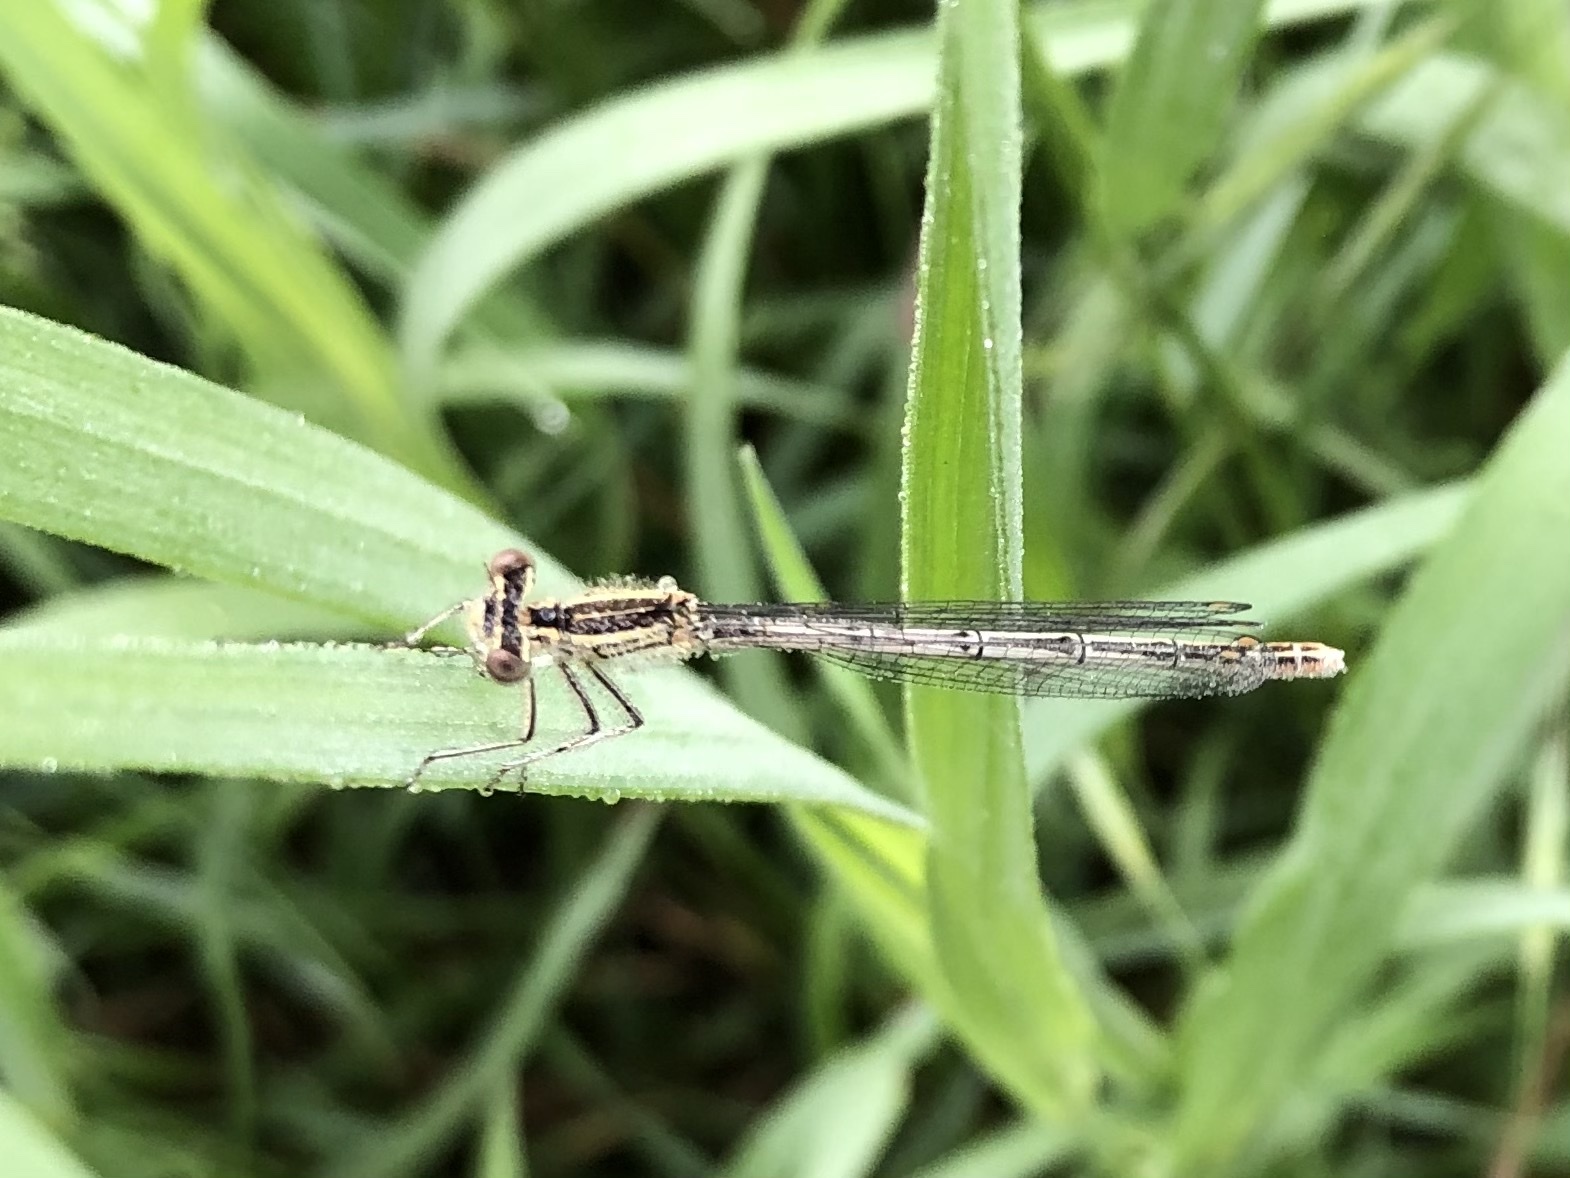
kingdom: Animalia
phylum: Arthropoda
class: Insecta
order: Odonata
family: Platycnemididae
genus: Platycnemis
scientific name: Platycnemis pennipes
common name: White-legged damselfly
